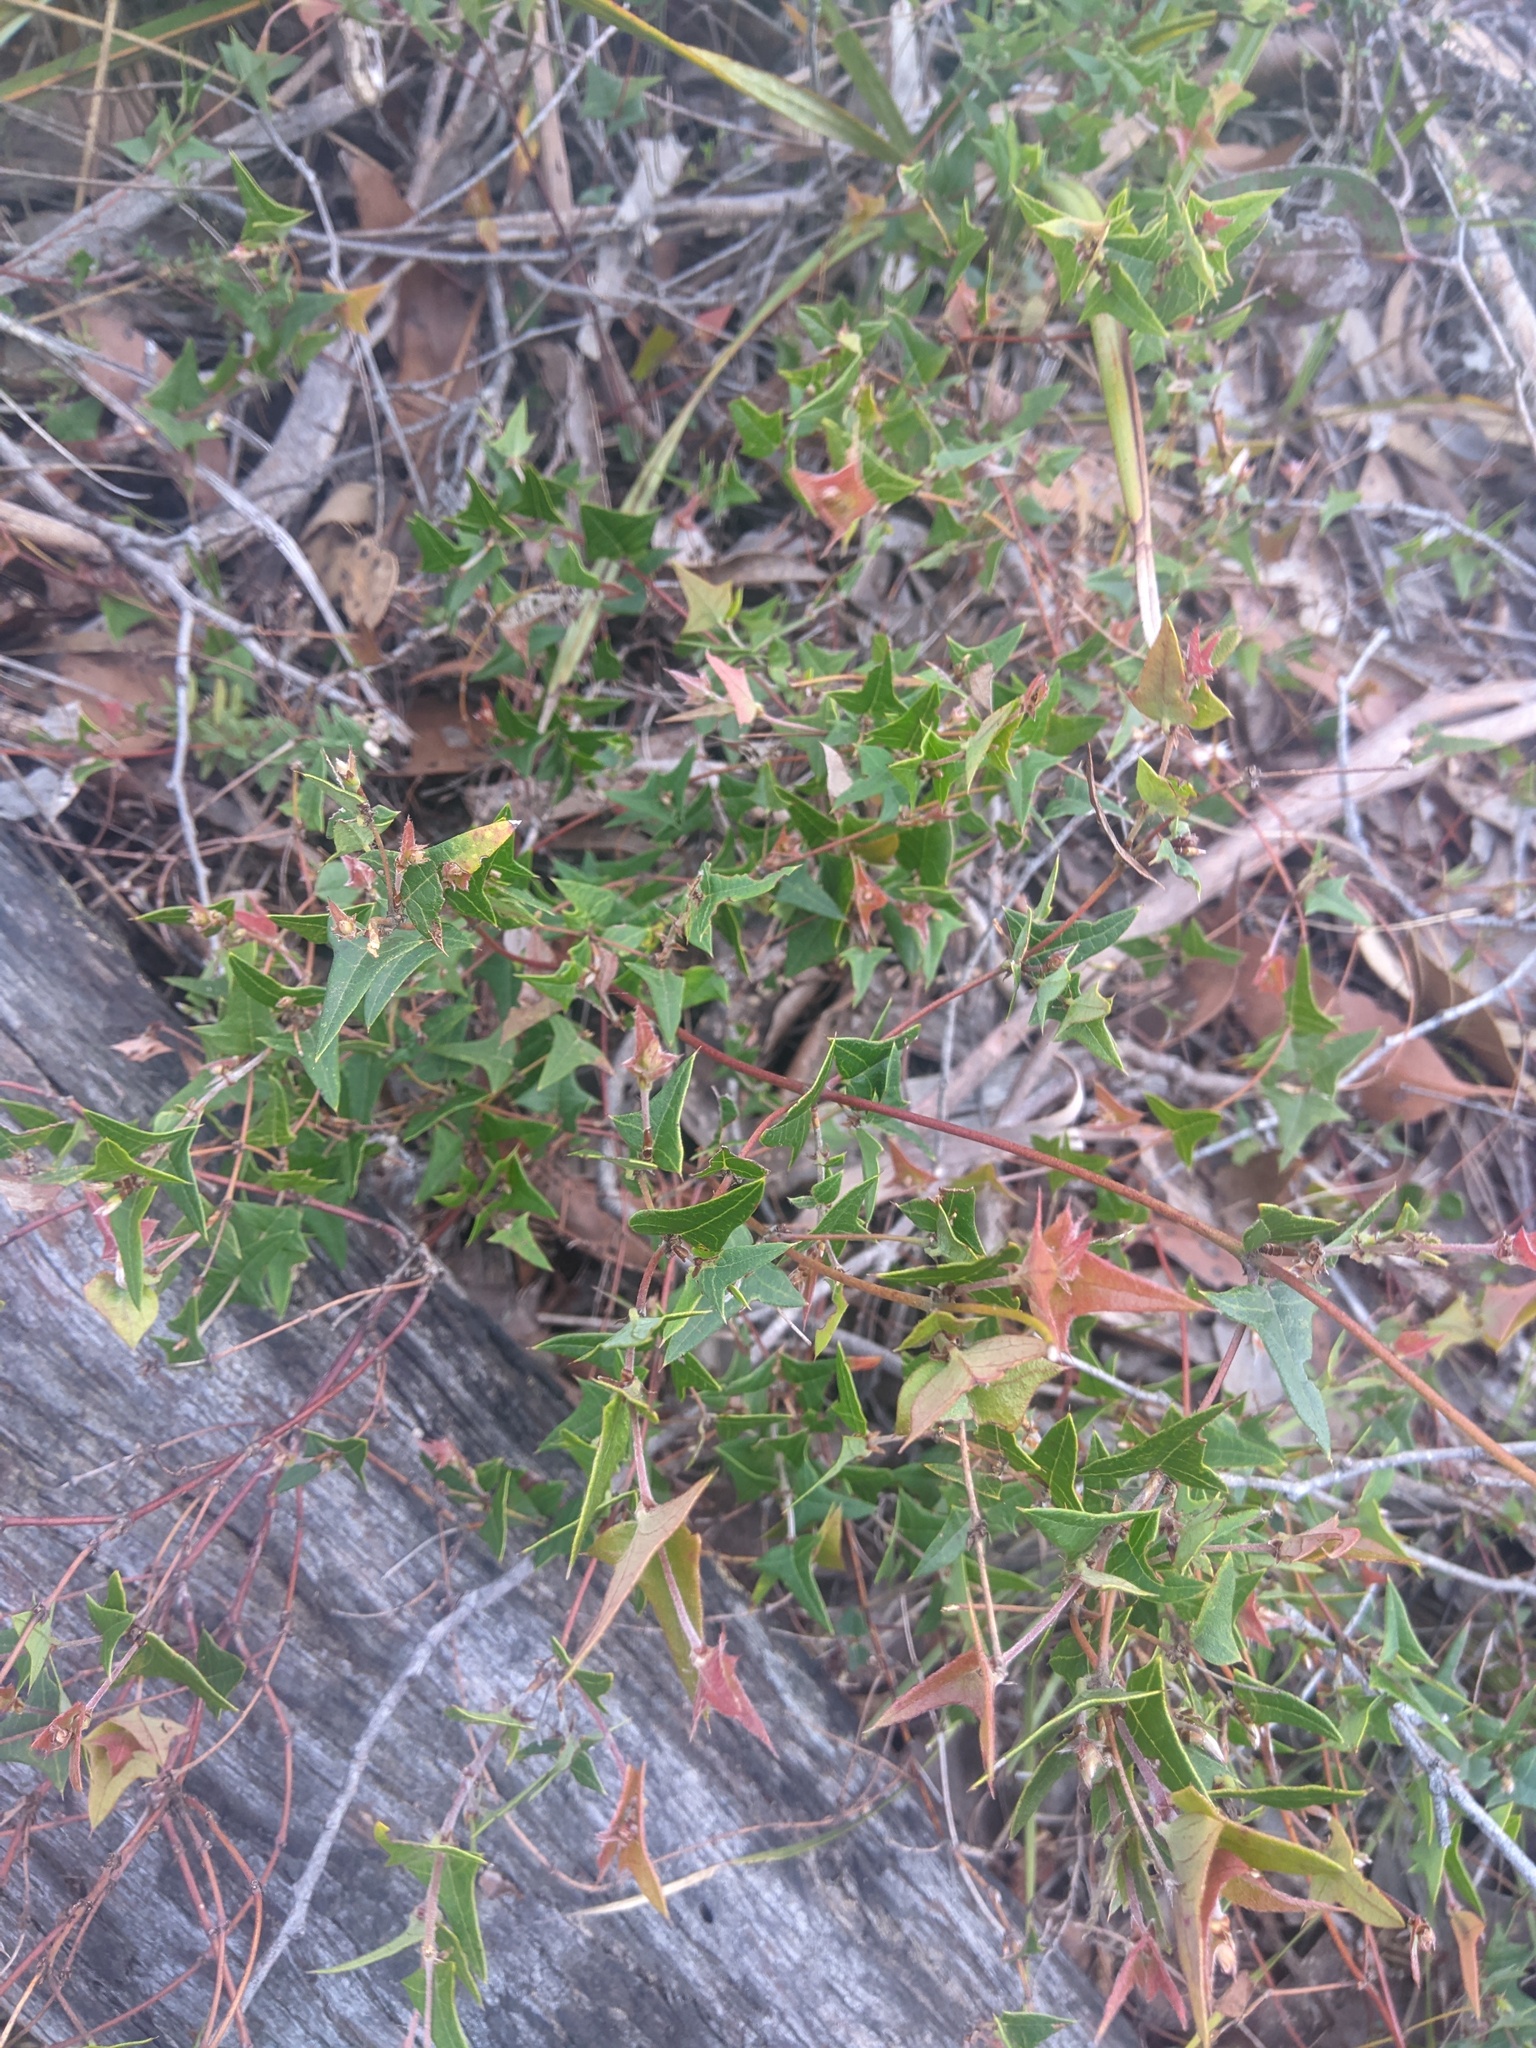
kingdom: Plantae
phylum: Tracheophyta
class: Magnoliopsida
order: Fabales
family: Fabaceae
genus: Platylobium
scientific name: Platylobium obtusangulum
